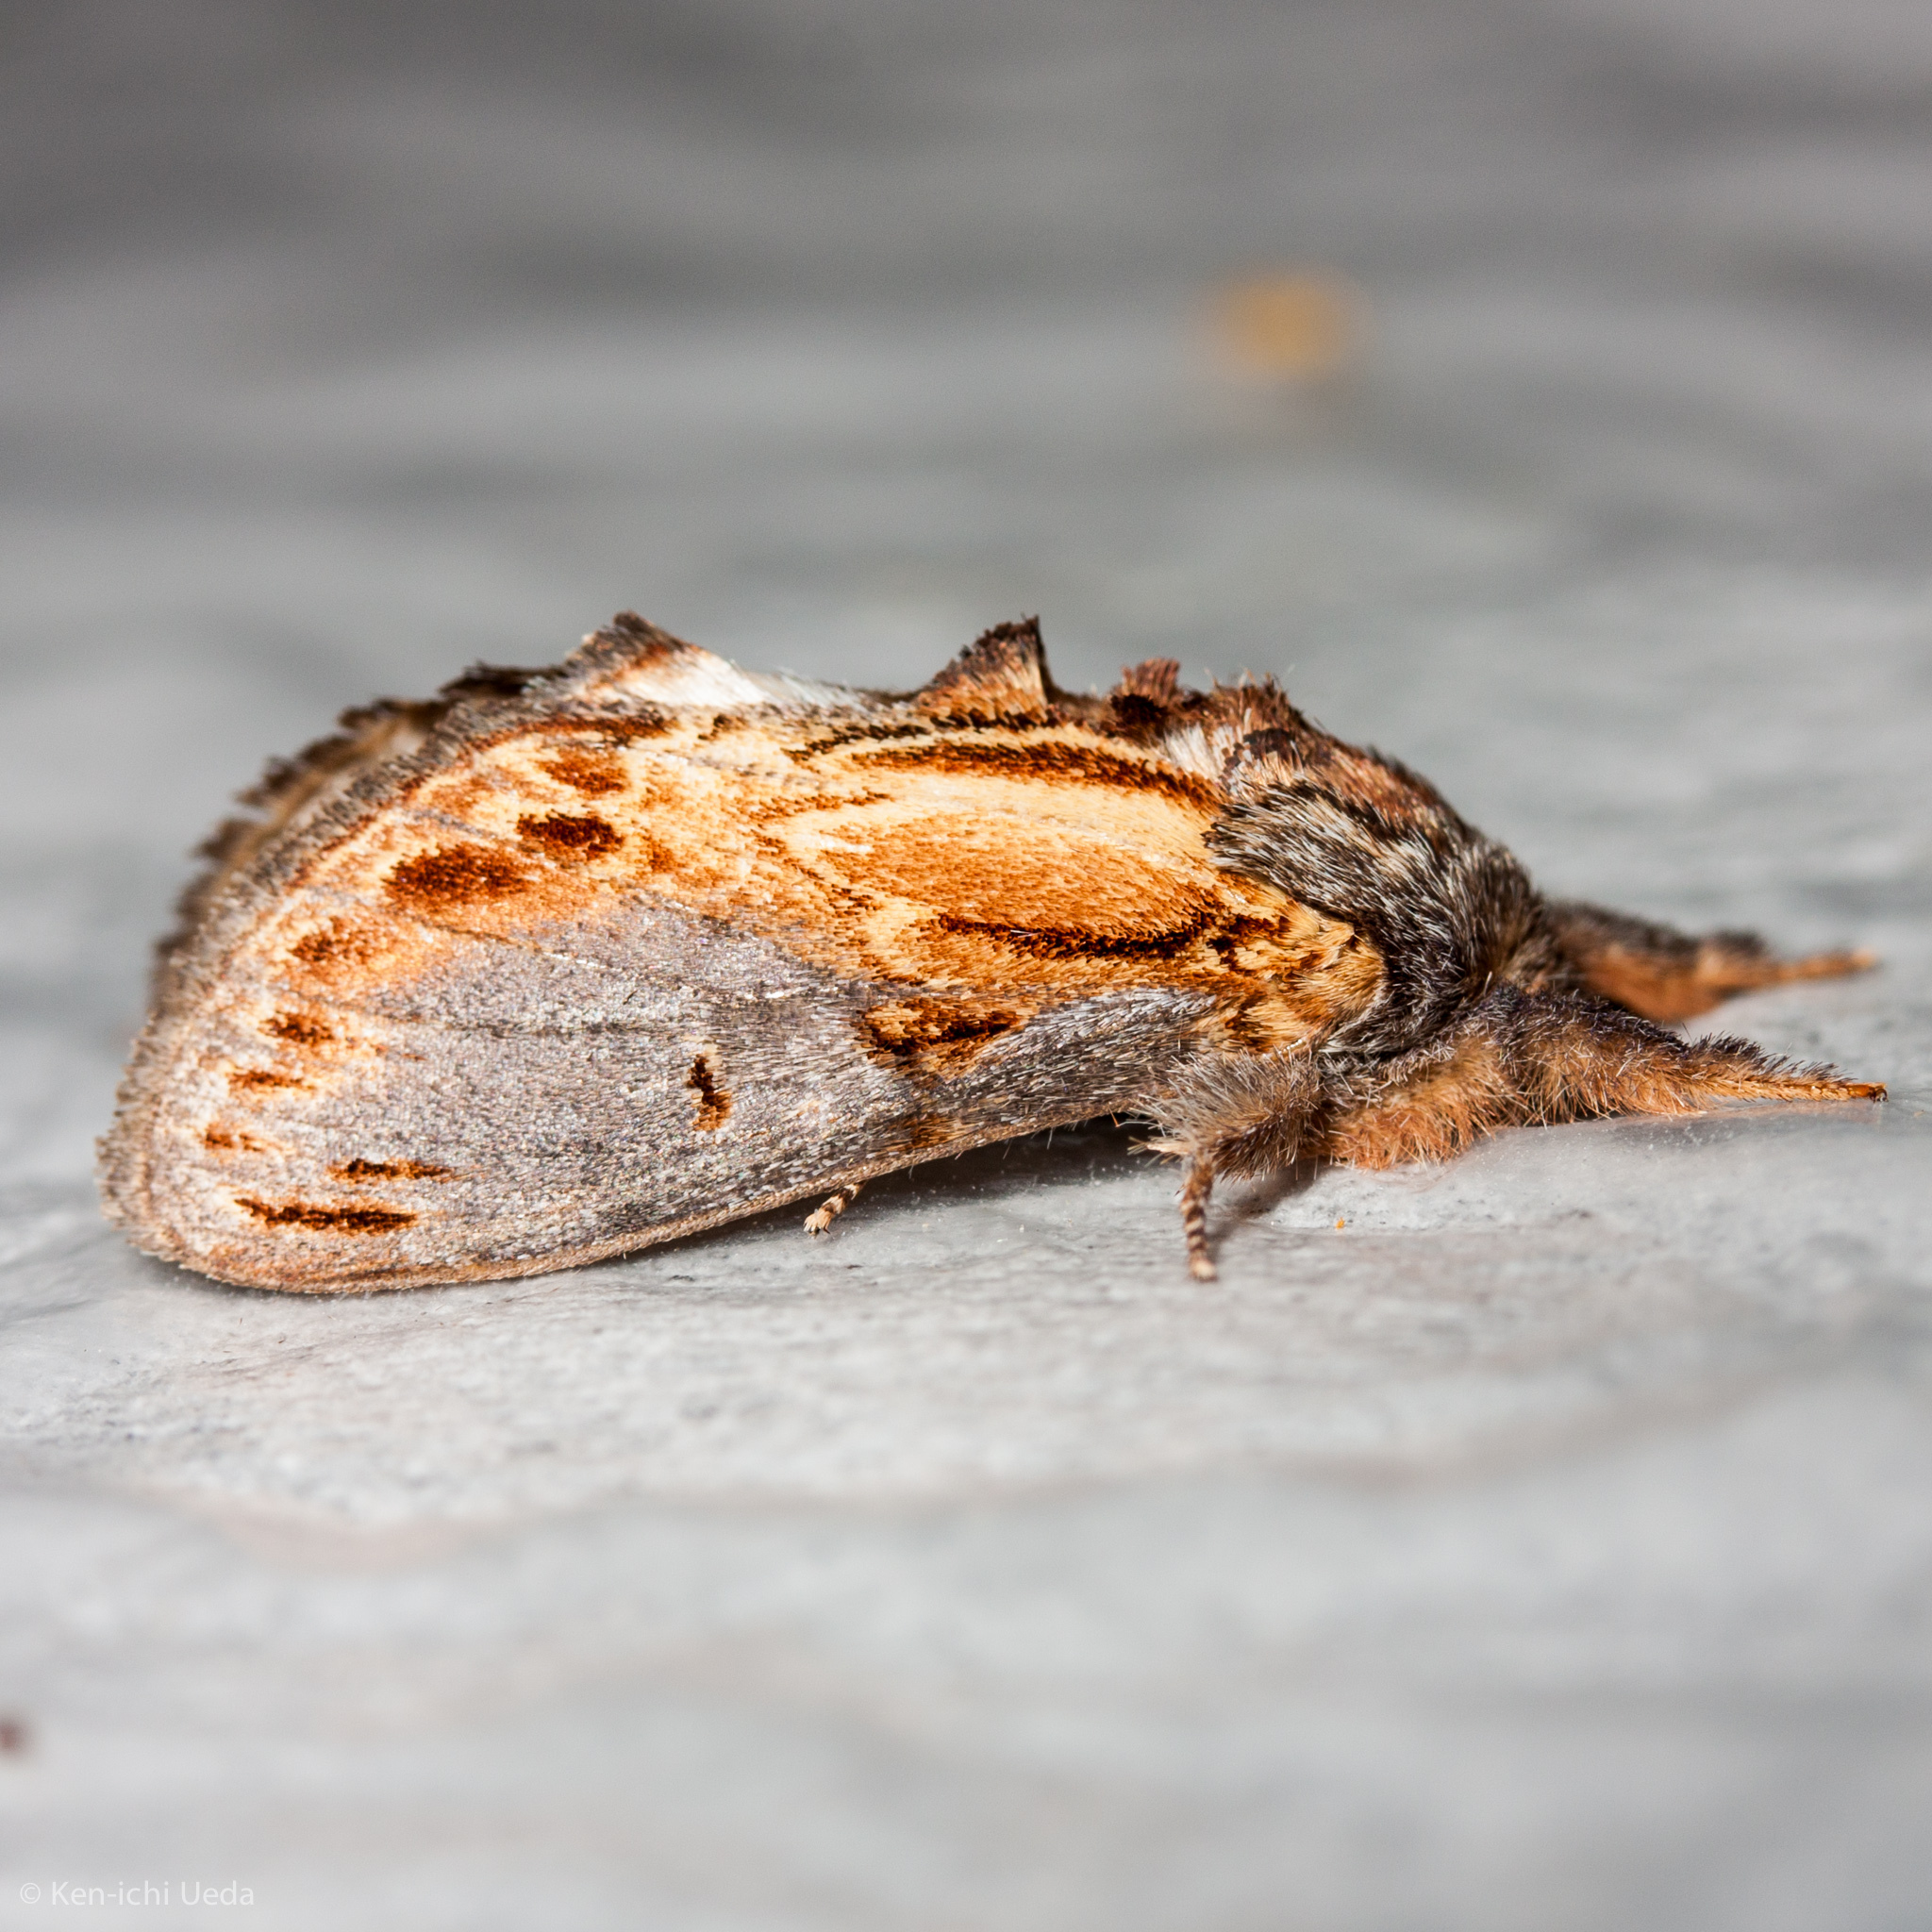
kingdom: Animalia
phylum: Arthropoda
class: Insecta
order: Lepidoptera
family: Notodontidae
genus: Notodonta
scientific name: Notodonta scitipennis
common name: Finned-willow prominent moth
